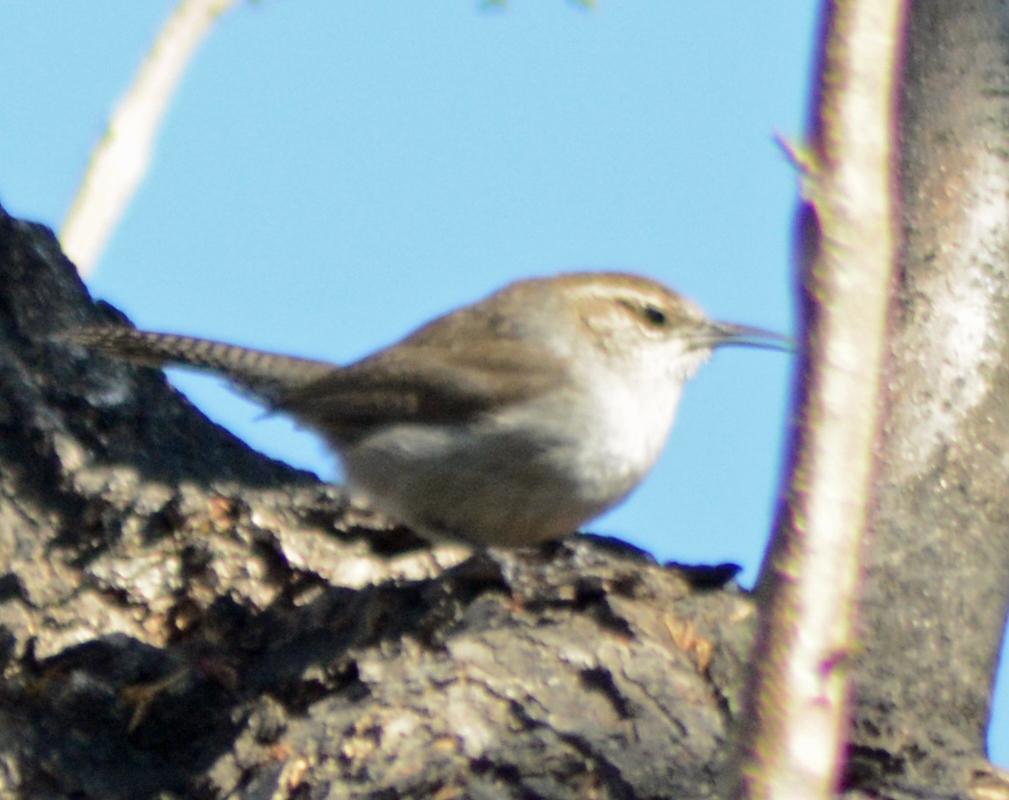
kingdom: Animalia
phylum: Chordata
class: Aves
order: Passeriformes
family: Troglodytidae
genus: Thryomanes
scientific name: Thryomanes bewickii
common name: Bewick's wren
